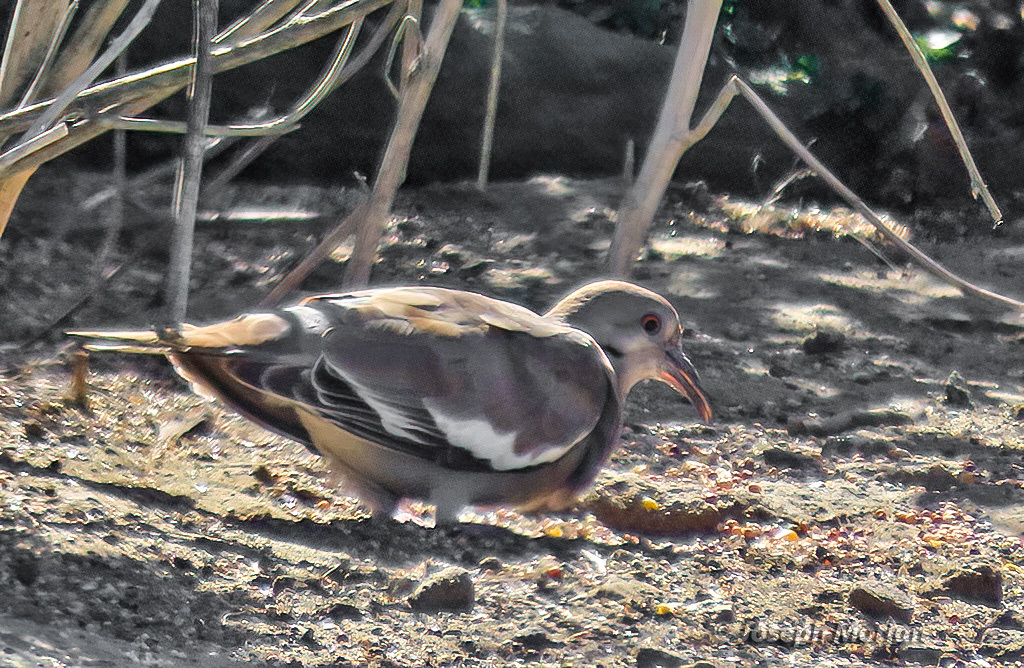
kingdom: Animalia
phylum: Chordata
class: Aves
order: Columbiformes
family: Columbidae
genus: Zenaida
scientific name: Zenaida asiatica
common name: White-winged dove
